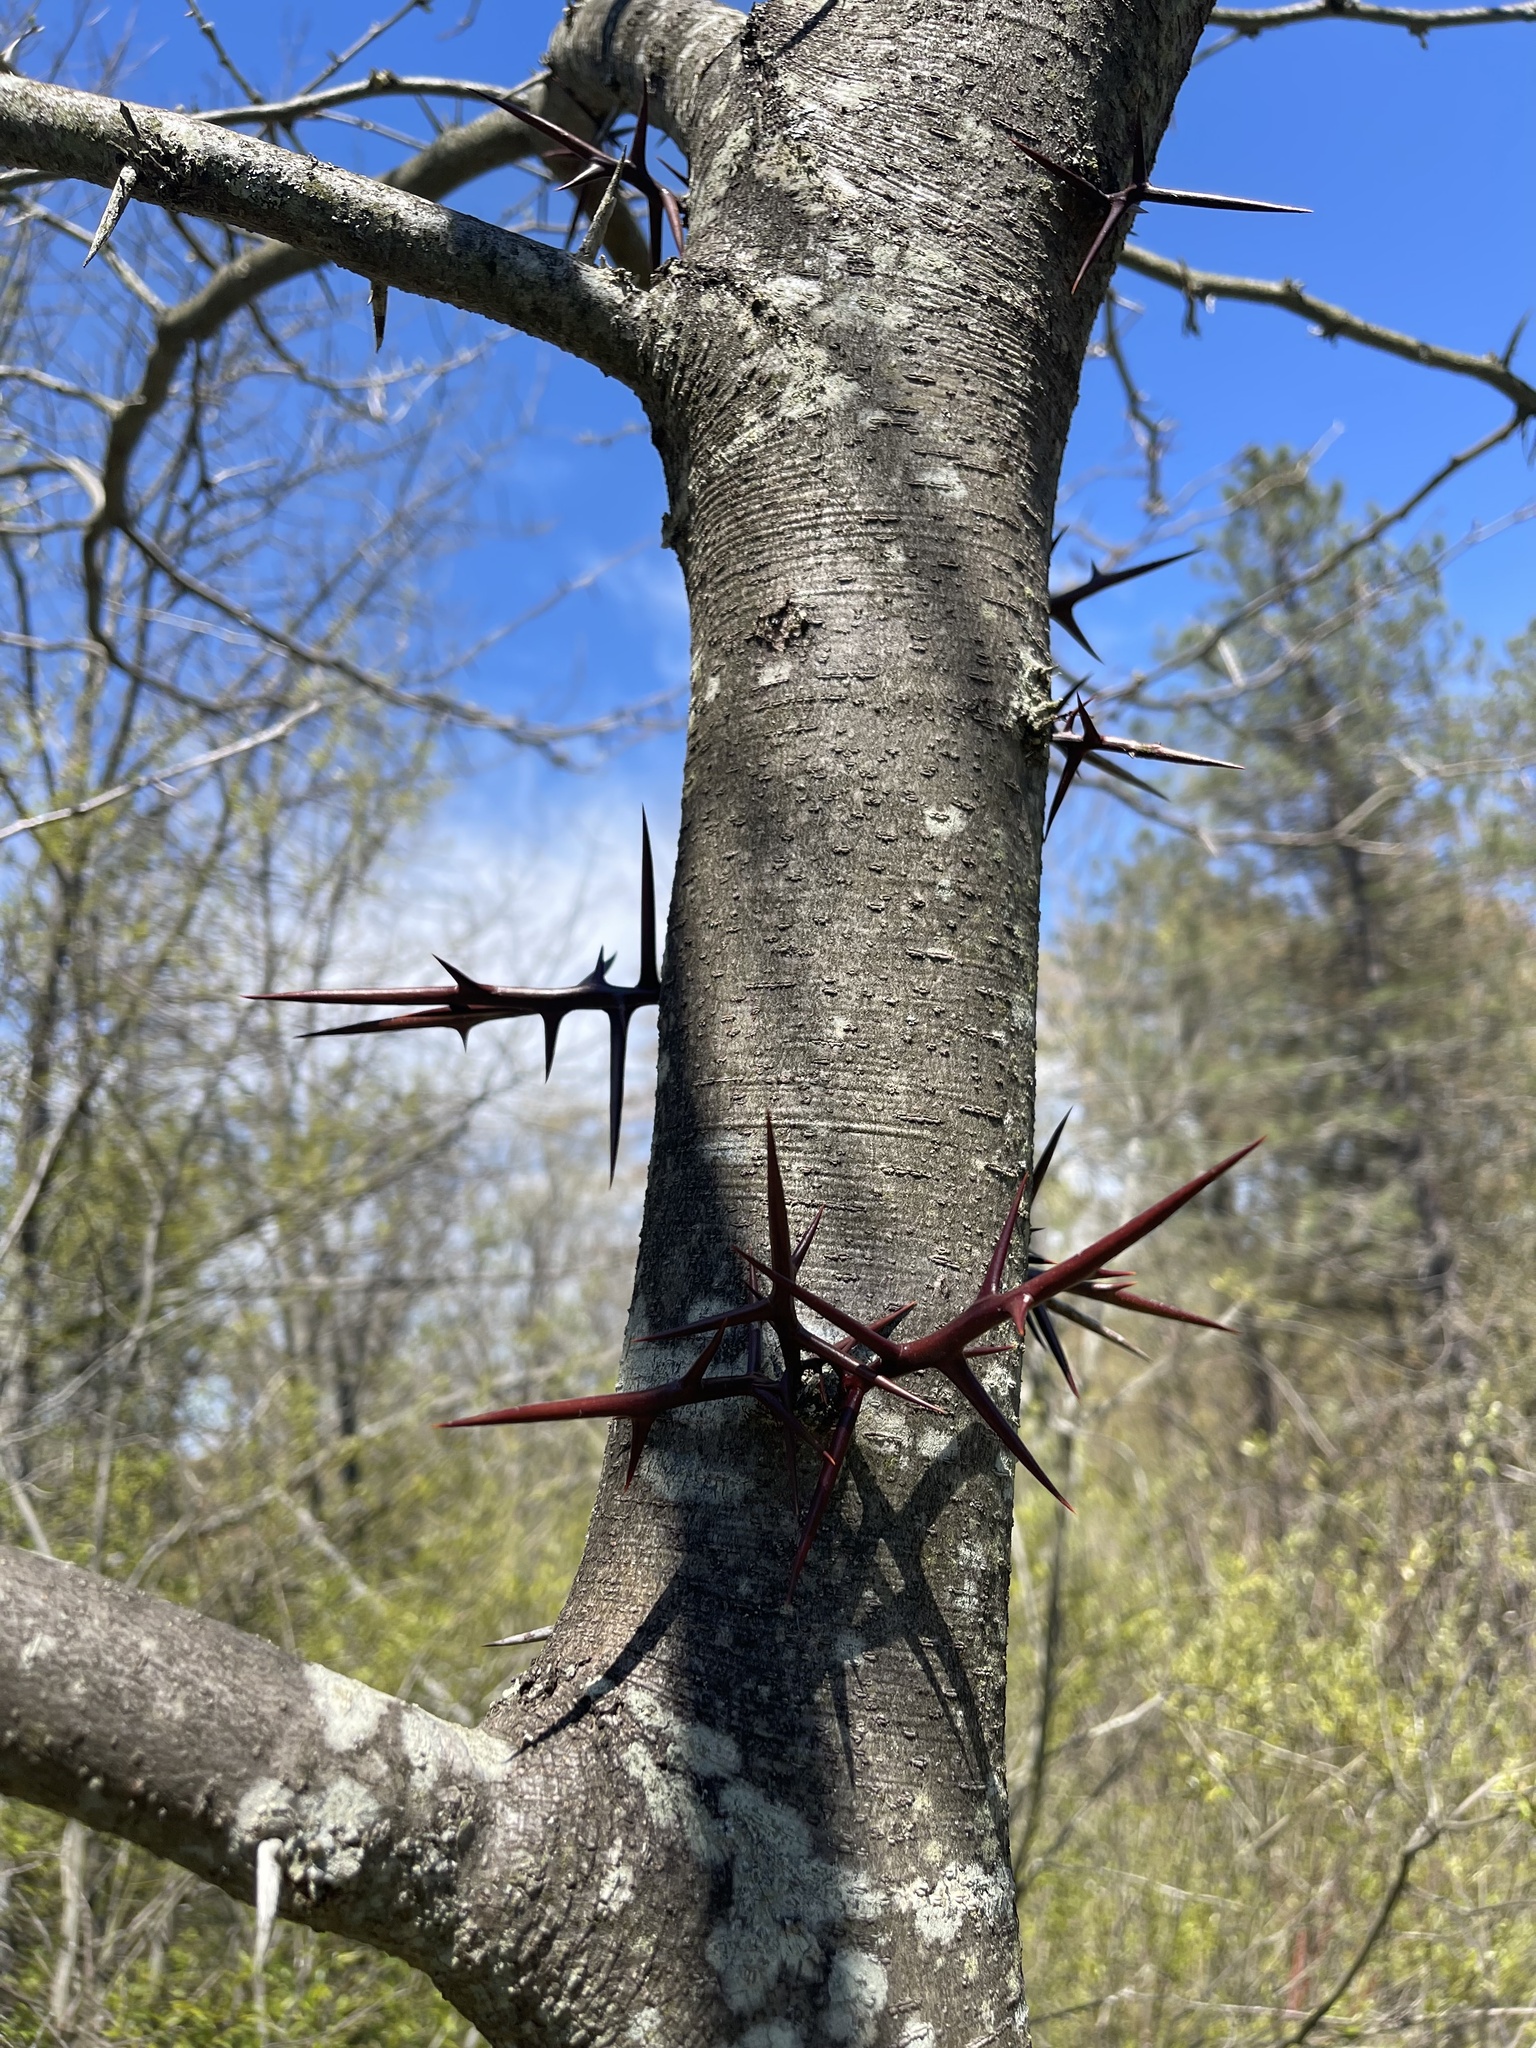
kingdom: Plantae
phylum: Tracheophyta
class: Magnoliopsida
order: Fabales
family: Fabaceae
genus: Gleditsia
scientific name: Gleditsia triacanthos
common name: Common honeylocust
